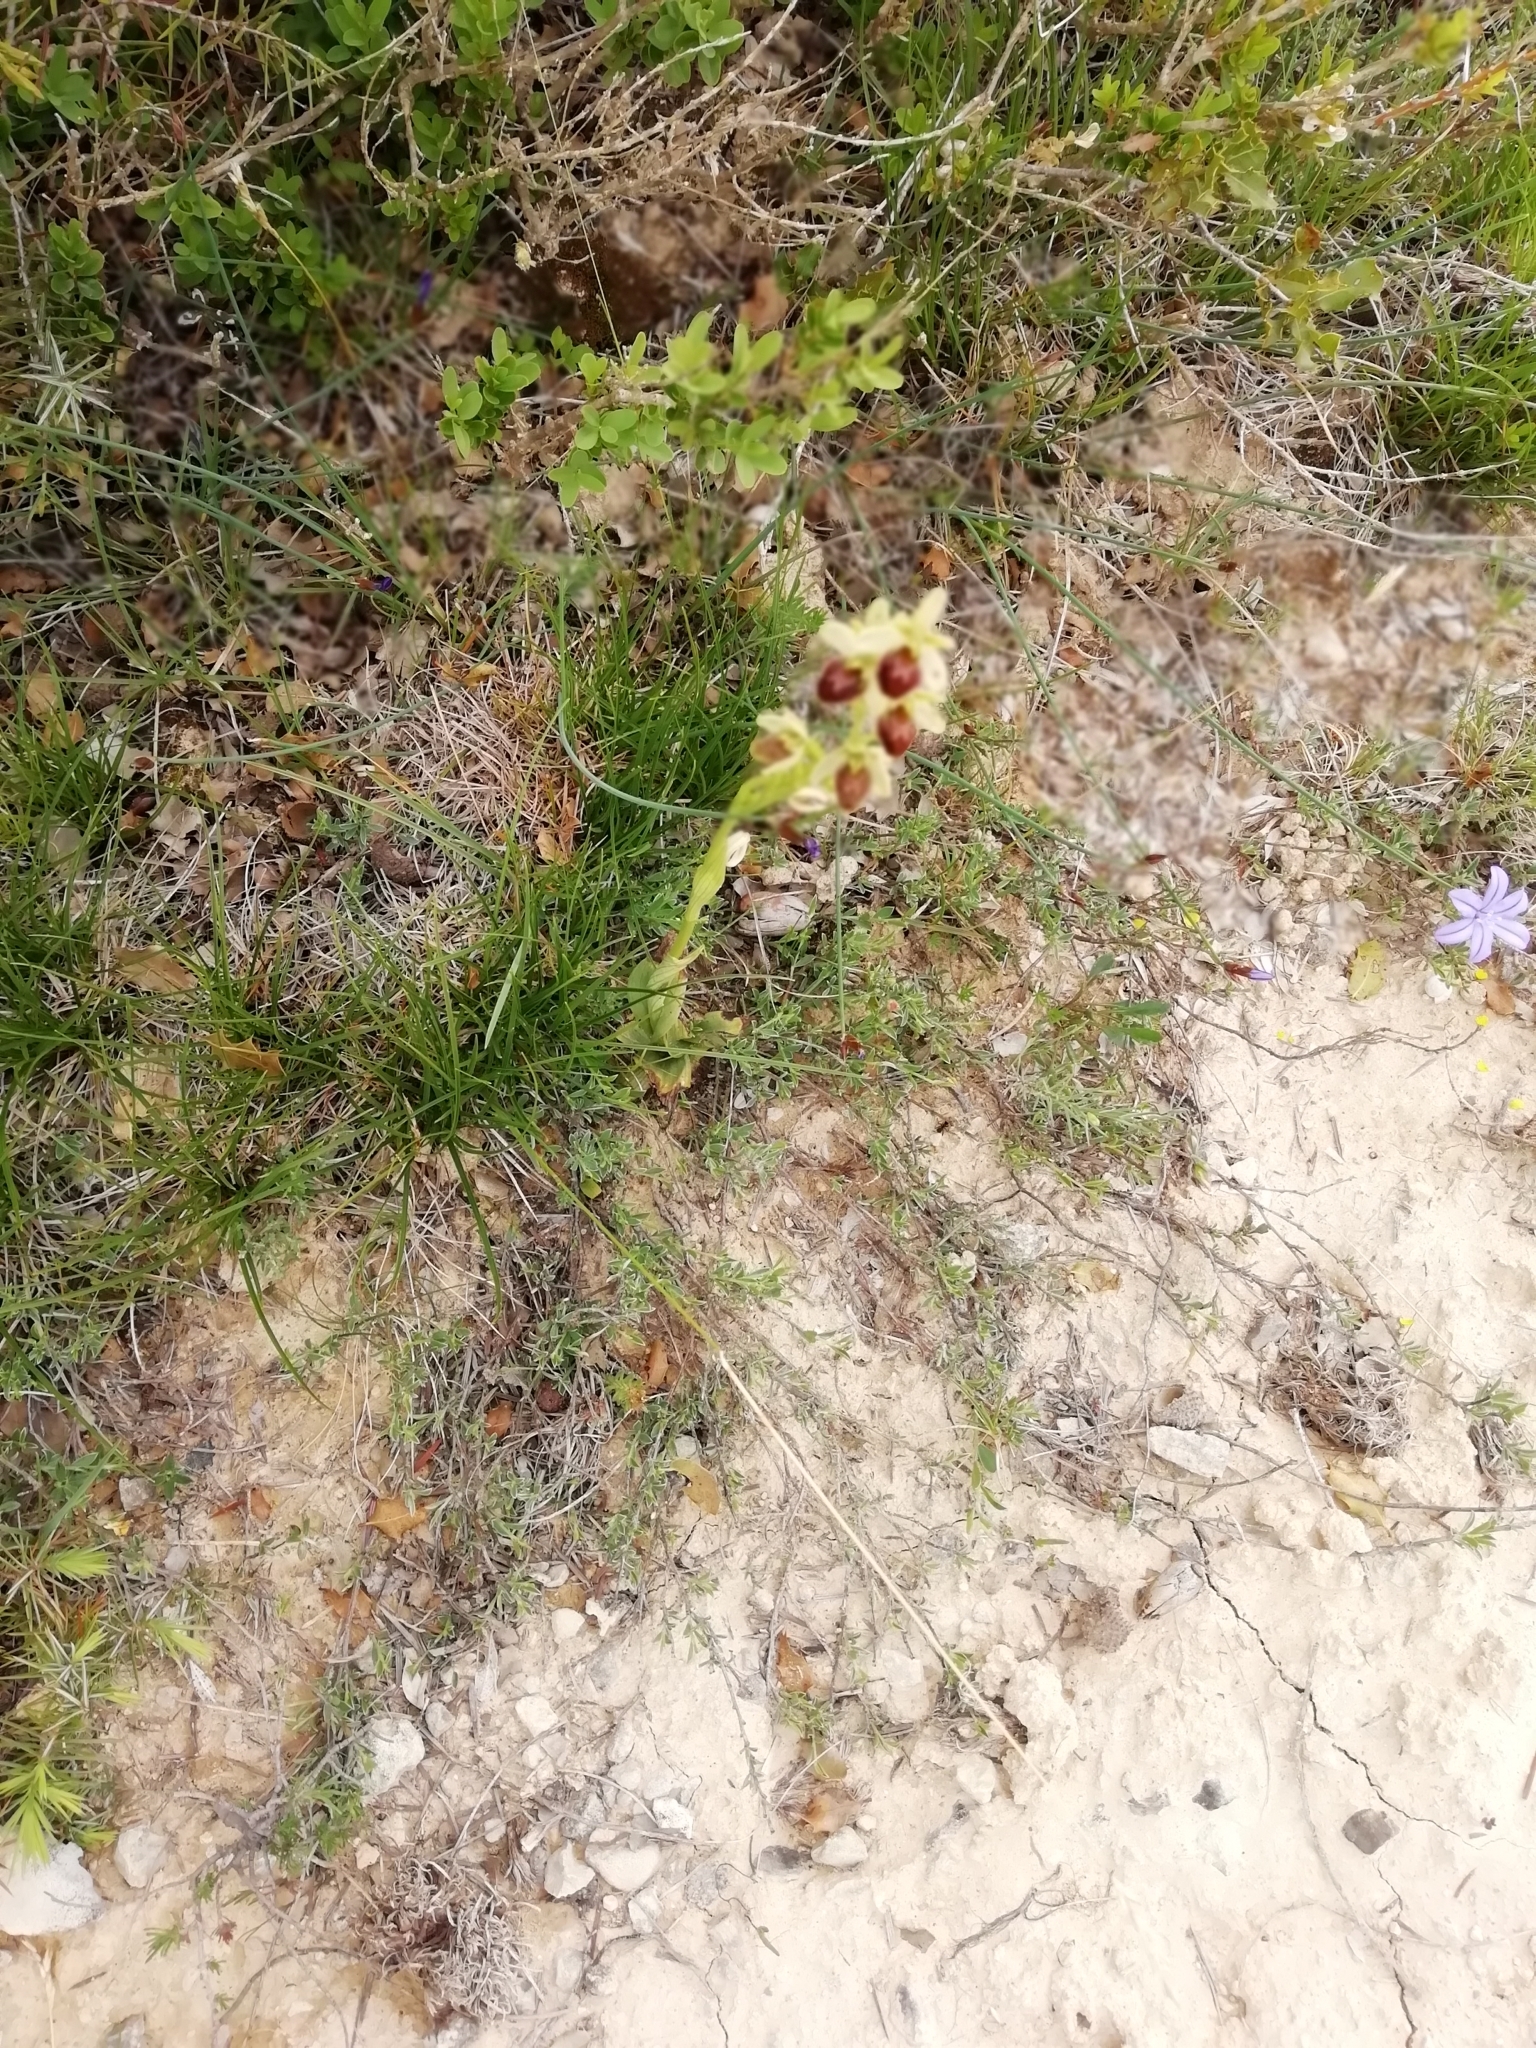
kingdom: Plantae
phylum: Tracheophyta
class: Liliopsida
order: Asparagales
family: Orchidaceae
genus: Ophrys
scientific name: Ophrys sphegodes
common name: Early spider-orchid
